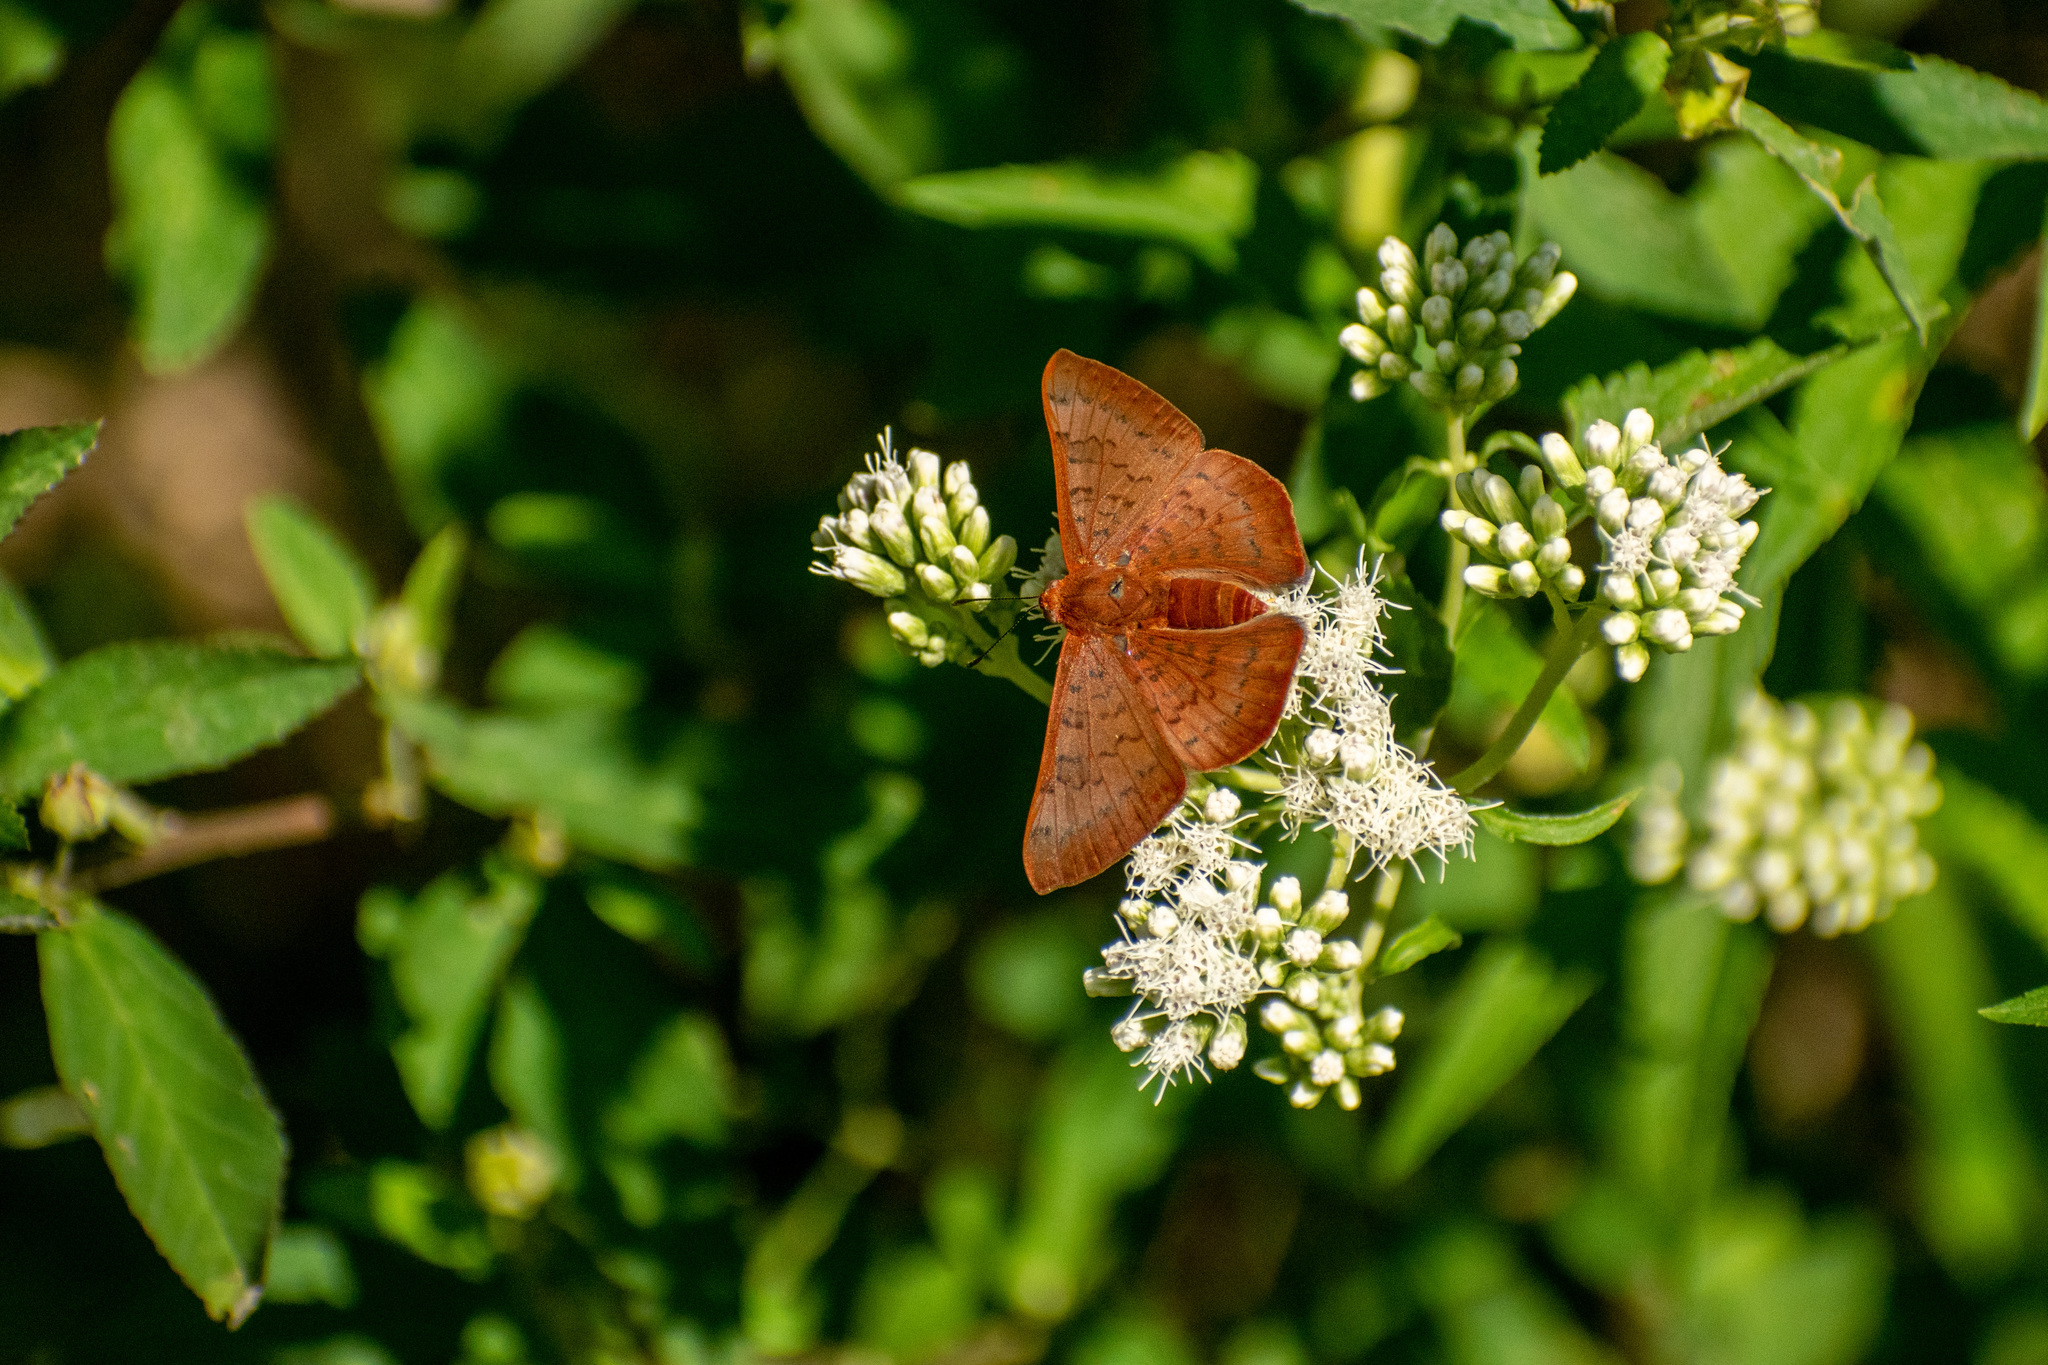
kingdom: Animalia
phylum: Arthropoda
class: Insecta
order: Lepidoptera
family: Lycaenidae
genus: Emesis
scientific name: Emesis russula
